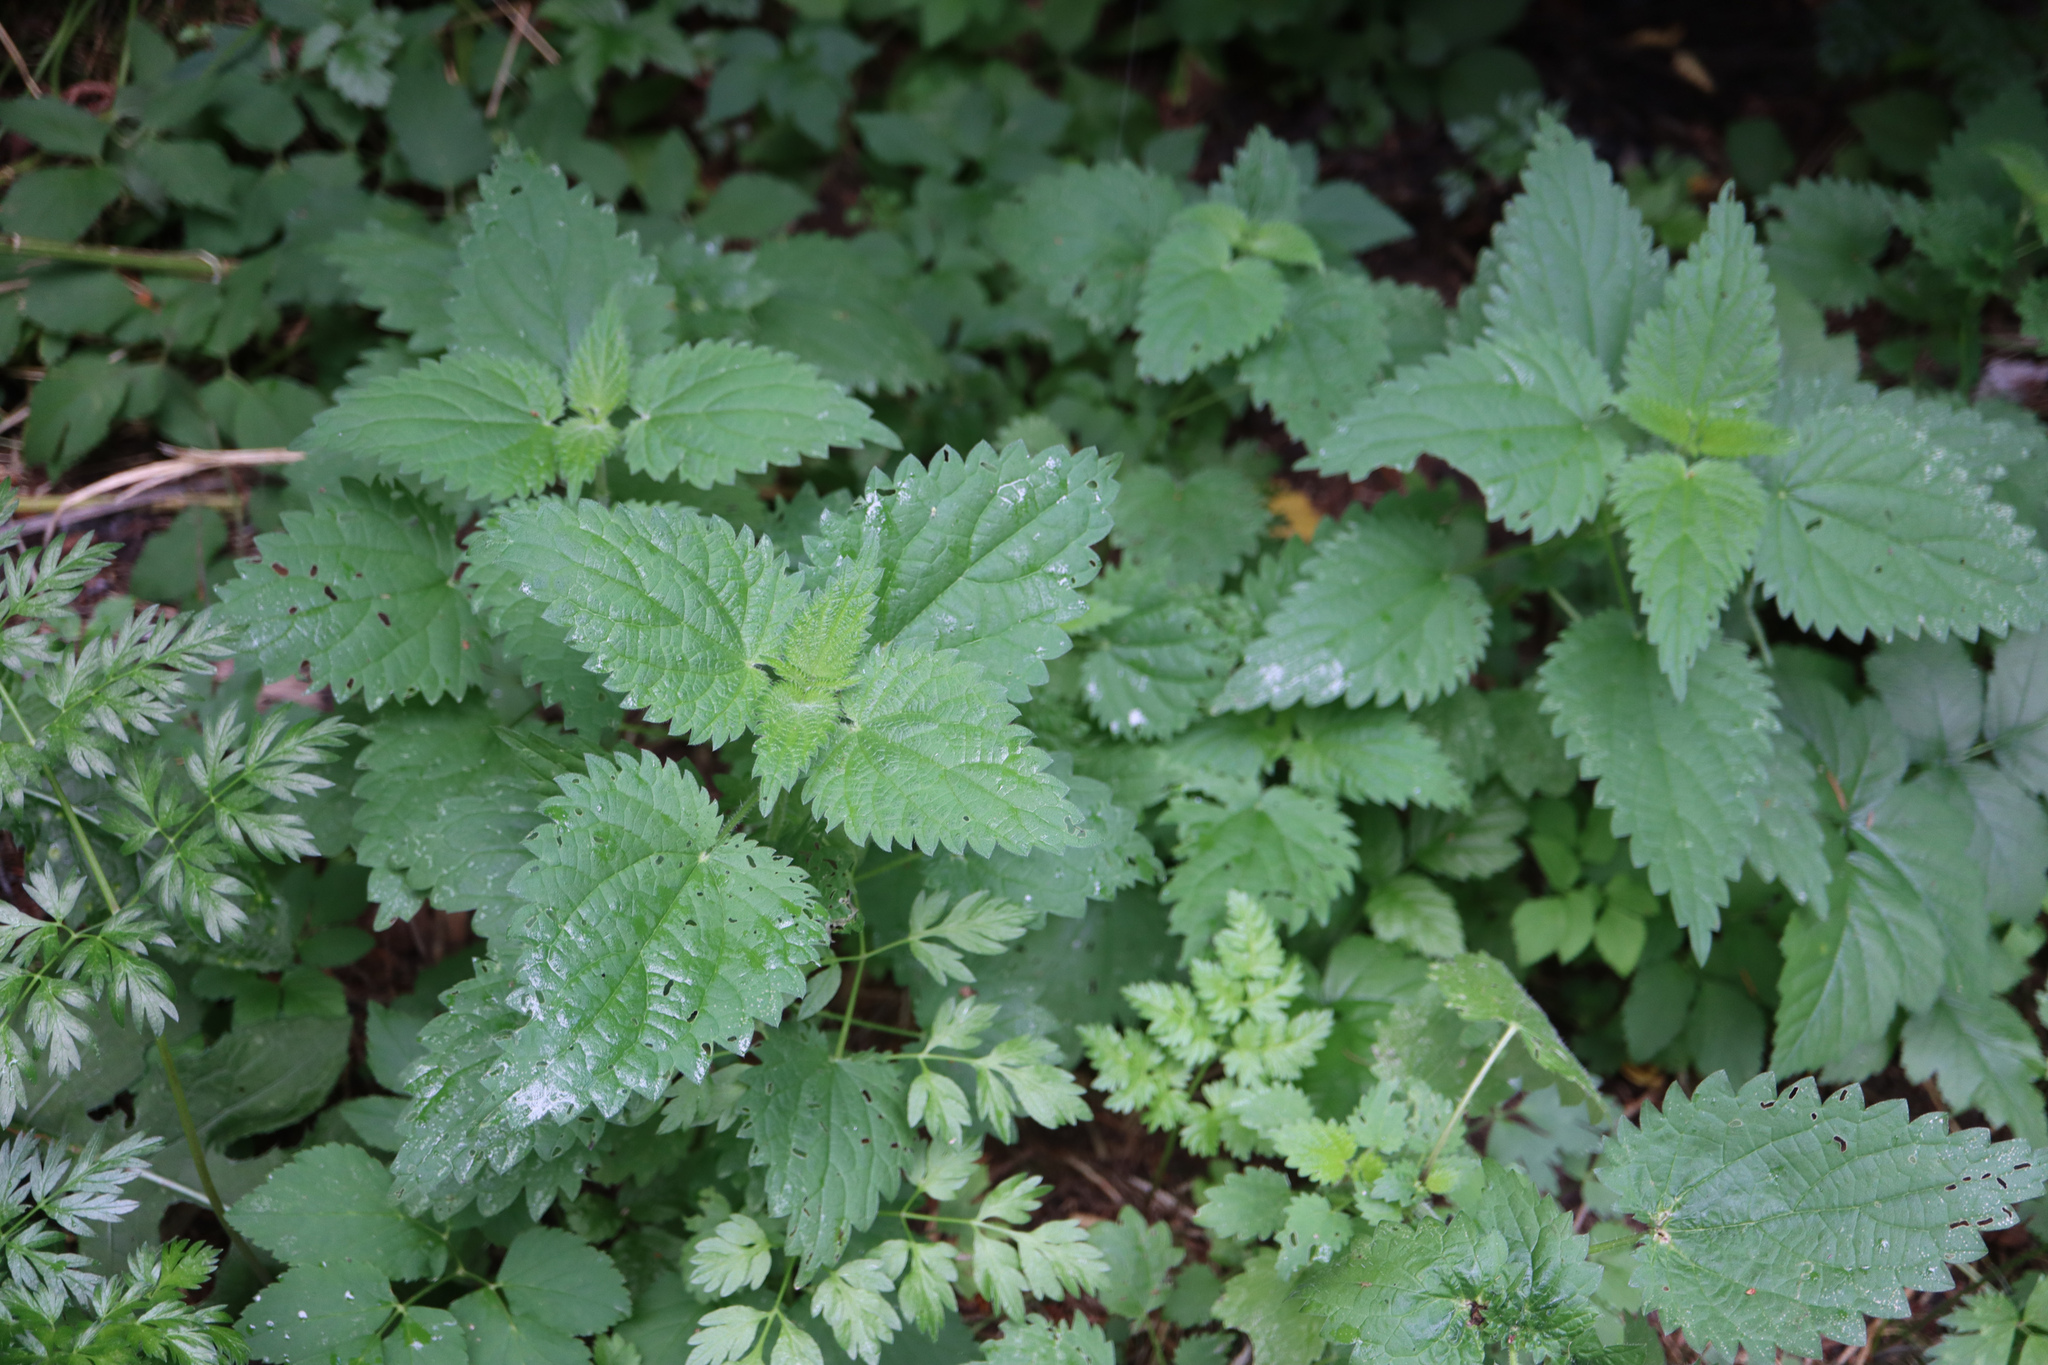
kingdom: Plantae
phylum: Tracheophyta
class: Magnoliopsida
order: Rosales
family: Urticaceae
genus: Urtica
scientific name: Urtica dioica
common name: Common nettle
